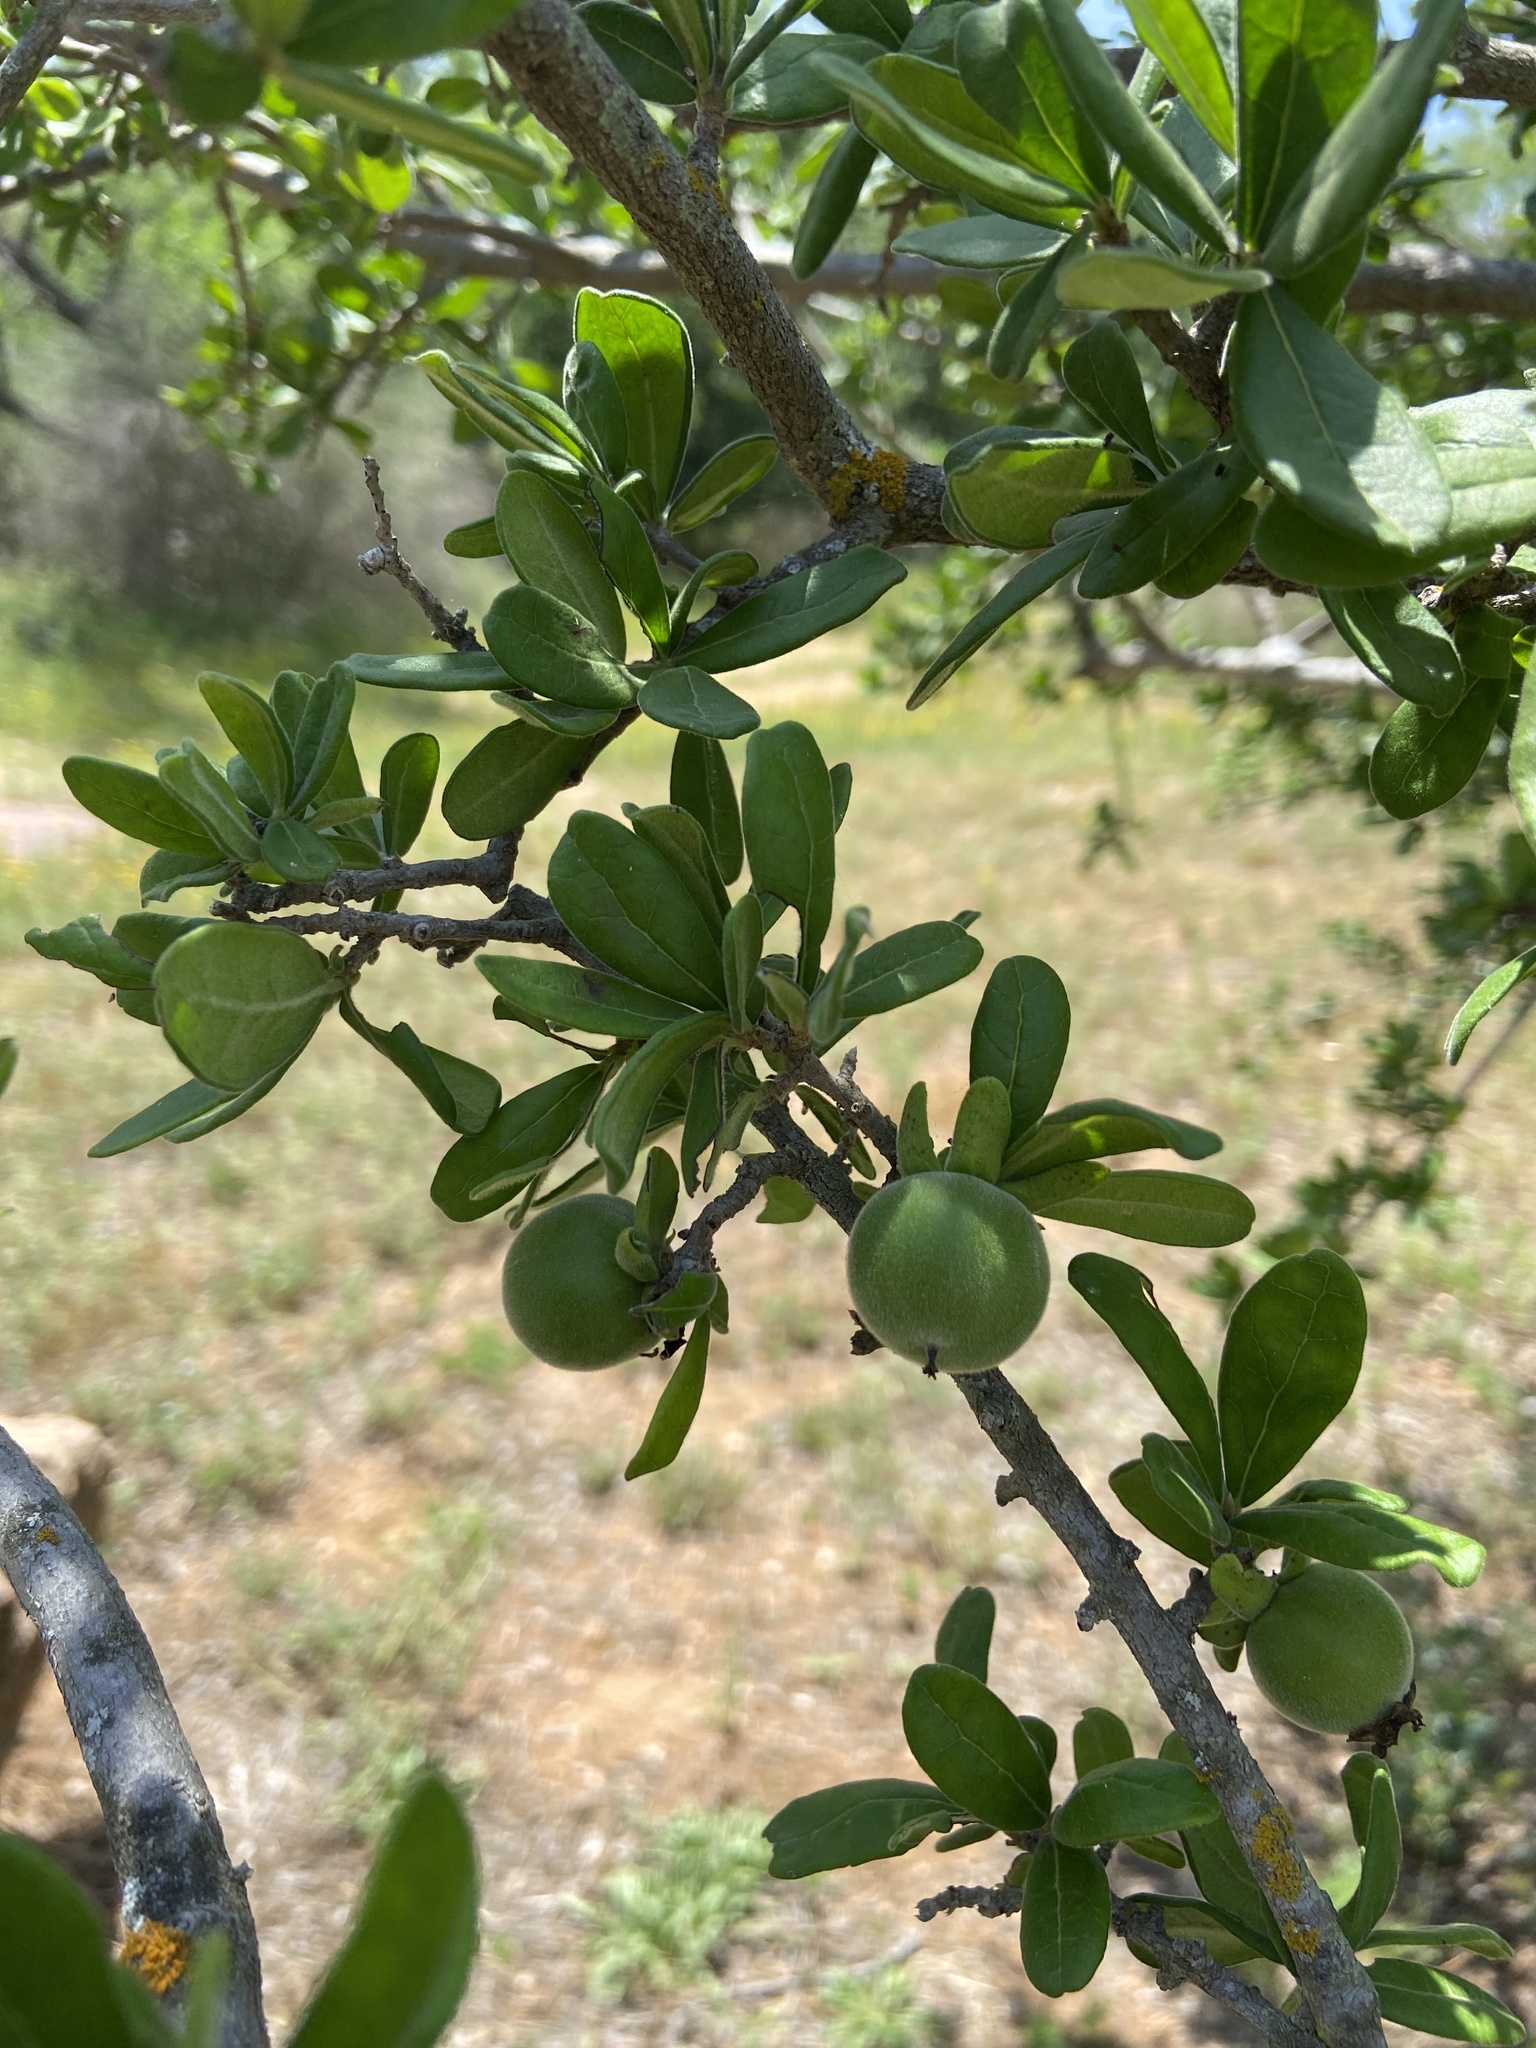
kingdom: Plantae
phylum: Tracheophyta
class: Magnoliopsida
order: Ericales
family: Ebenaceae
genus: Diospyros
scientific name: Diospyros texana
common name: Texas persimmon
